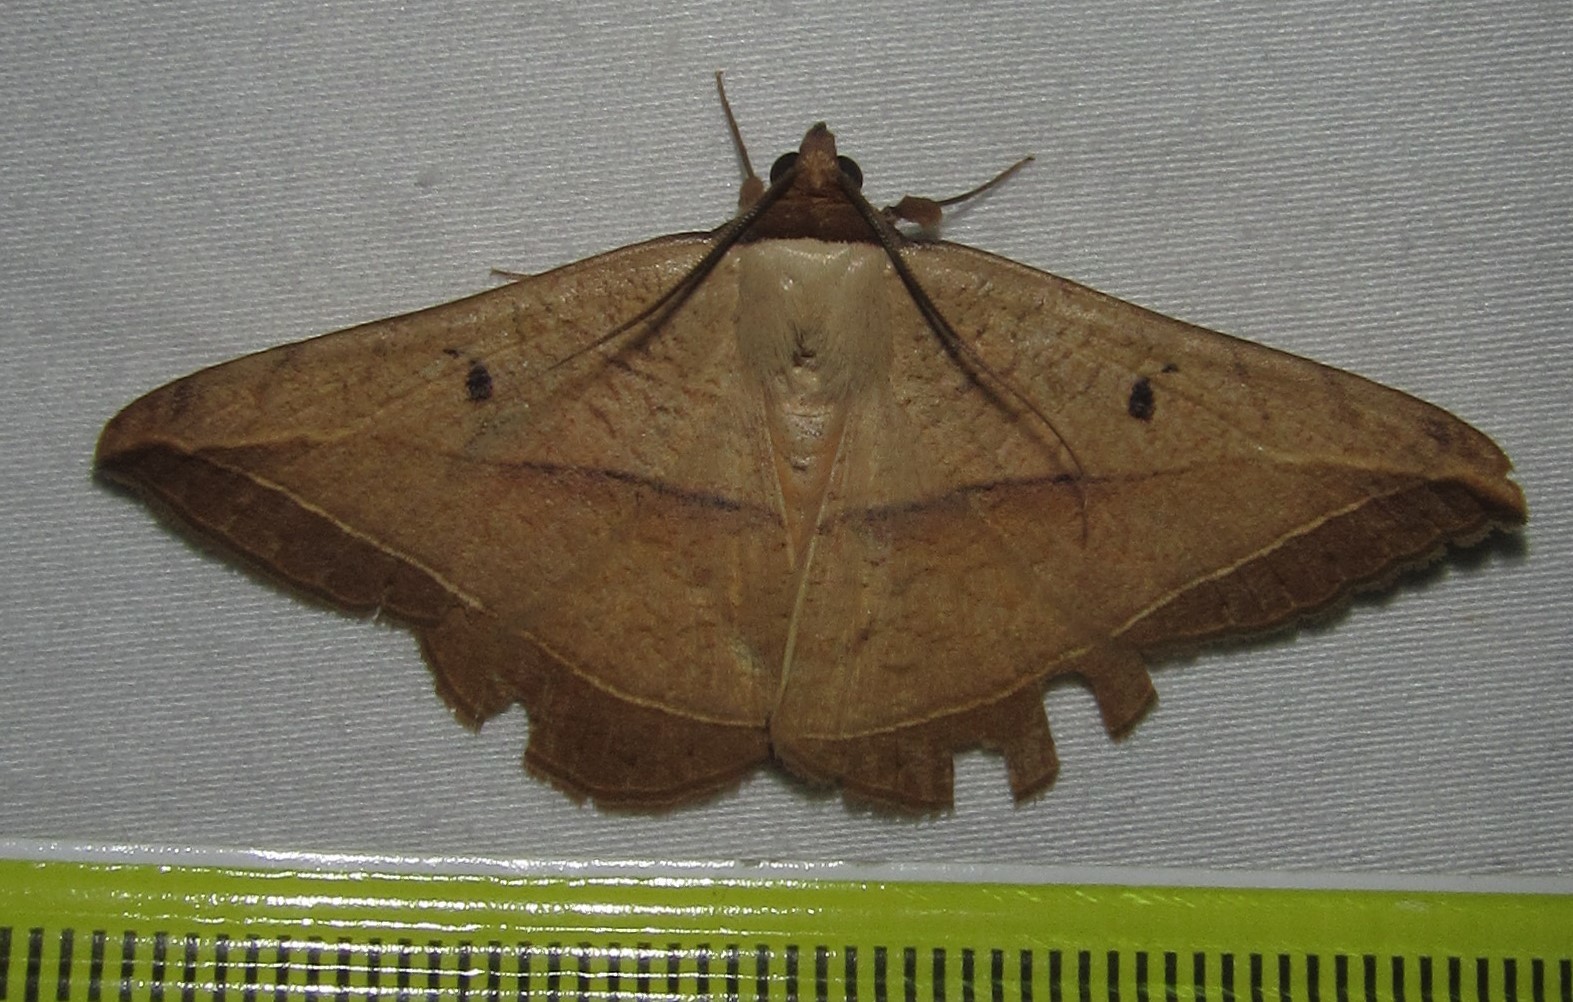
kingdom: Animalia
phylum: Arthropoda
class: Insecta
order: Lepidoptera
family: Erebidae
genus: Entomogramma
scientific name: Entomogramma pardus
